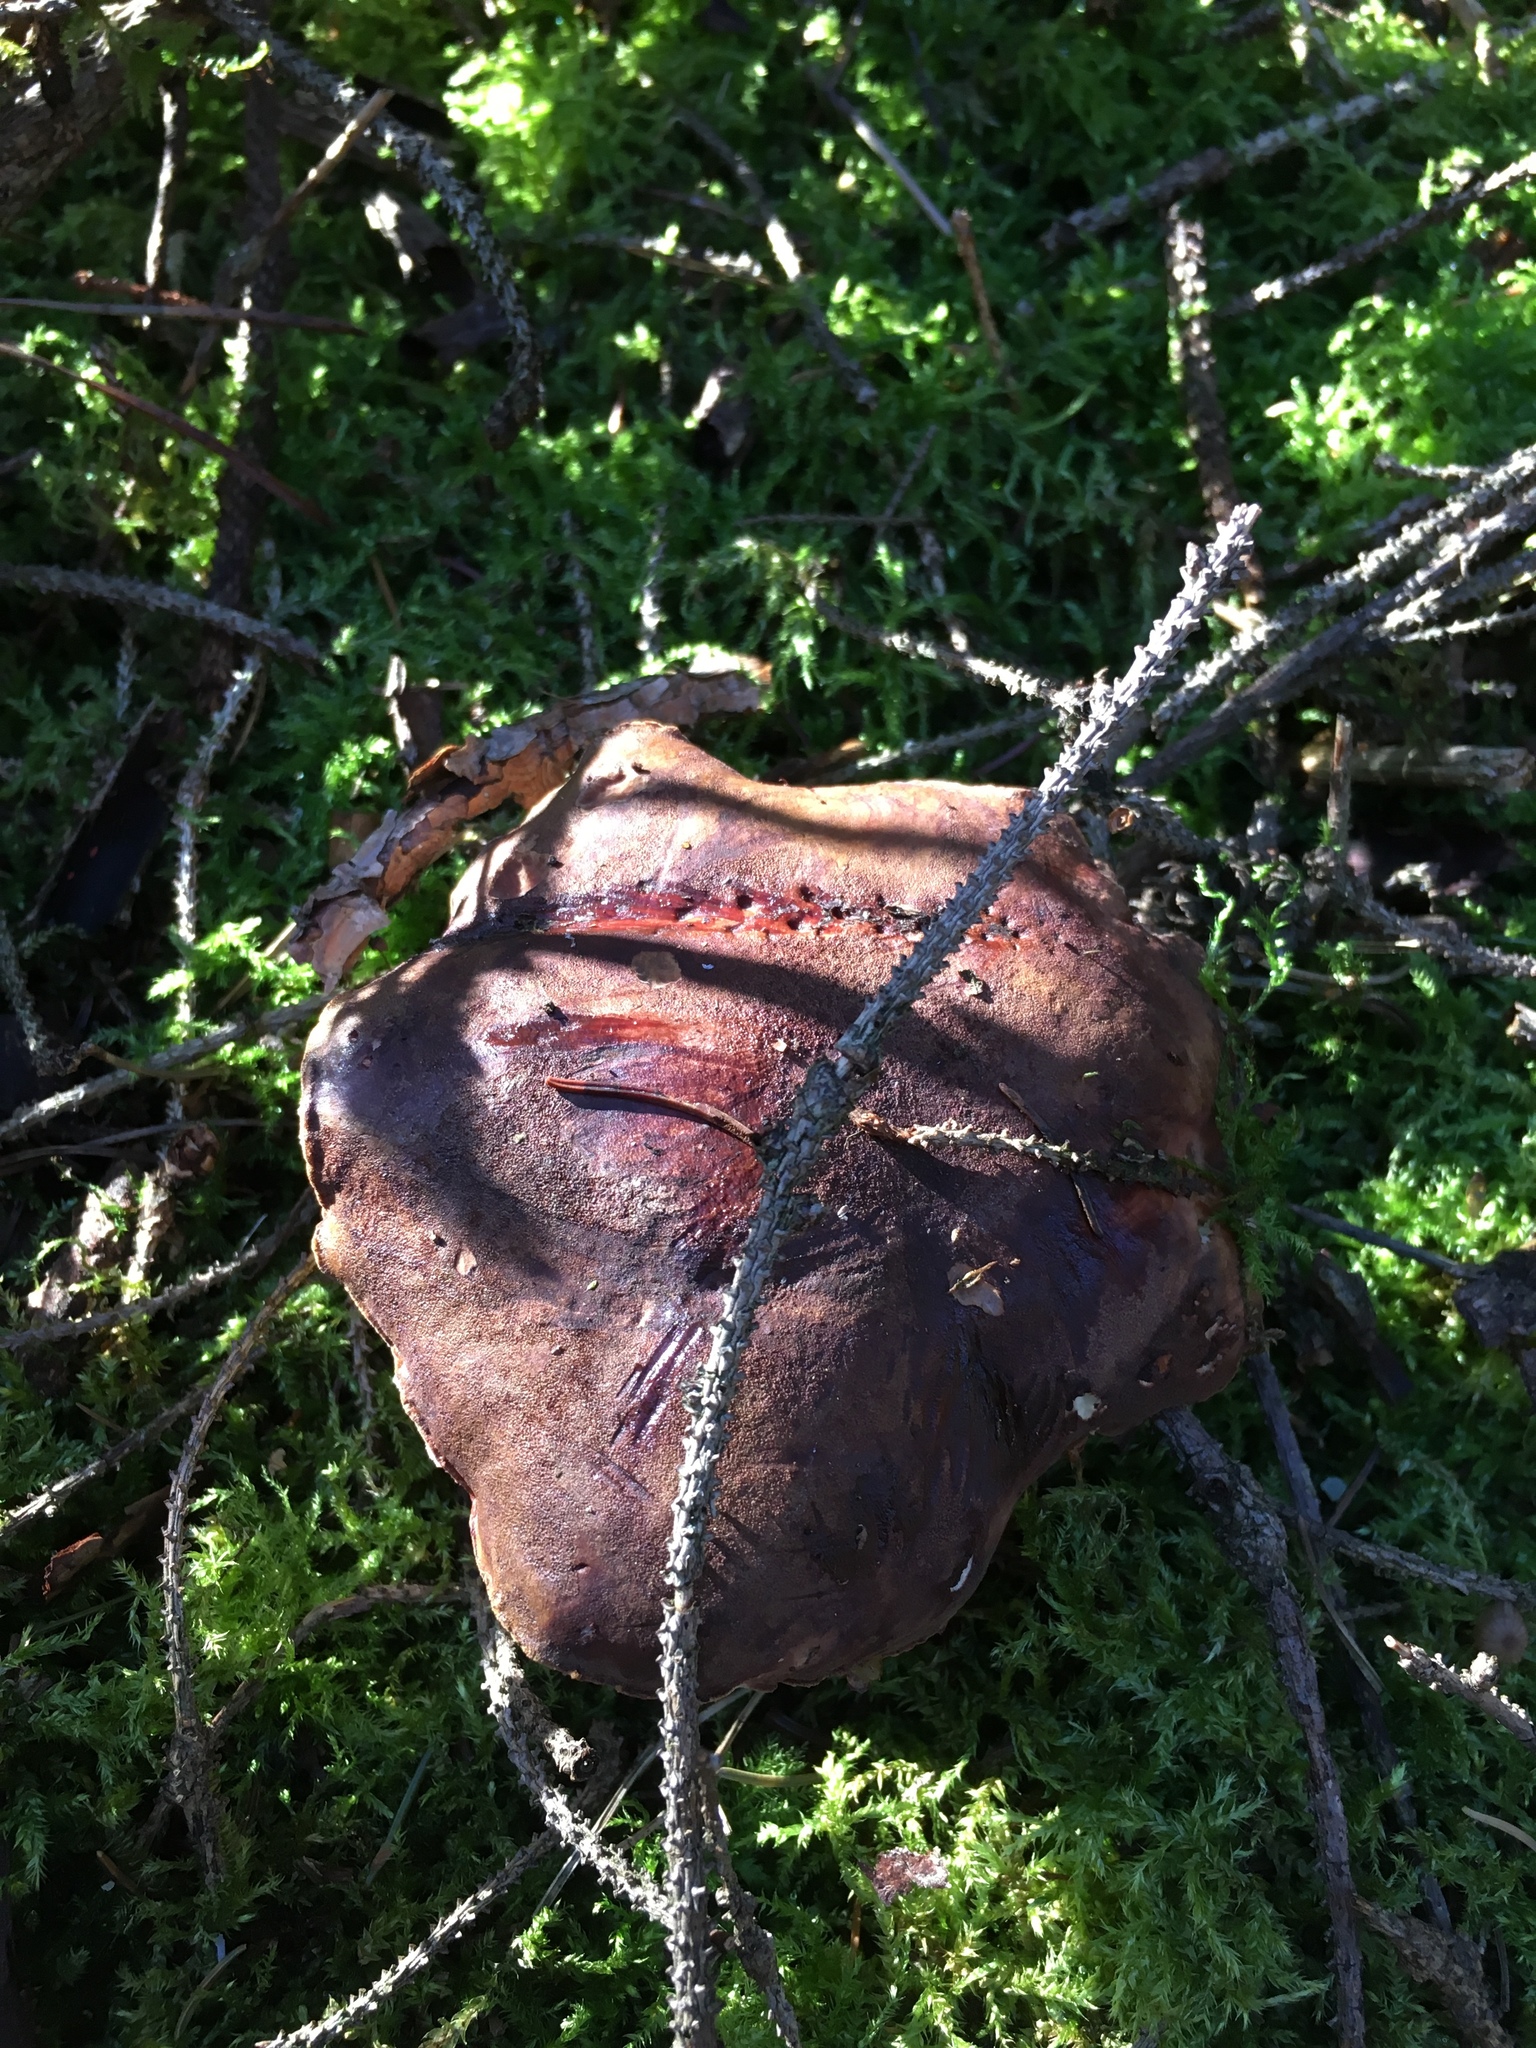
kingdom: Fungi
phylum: Basidiomycota
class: Agaricomycetes
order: Boletales
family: Boletaceae
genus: Boletus
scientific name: Boletus edulis
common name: Cep
